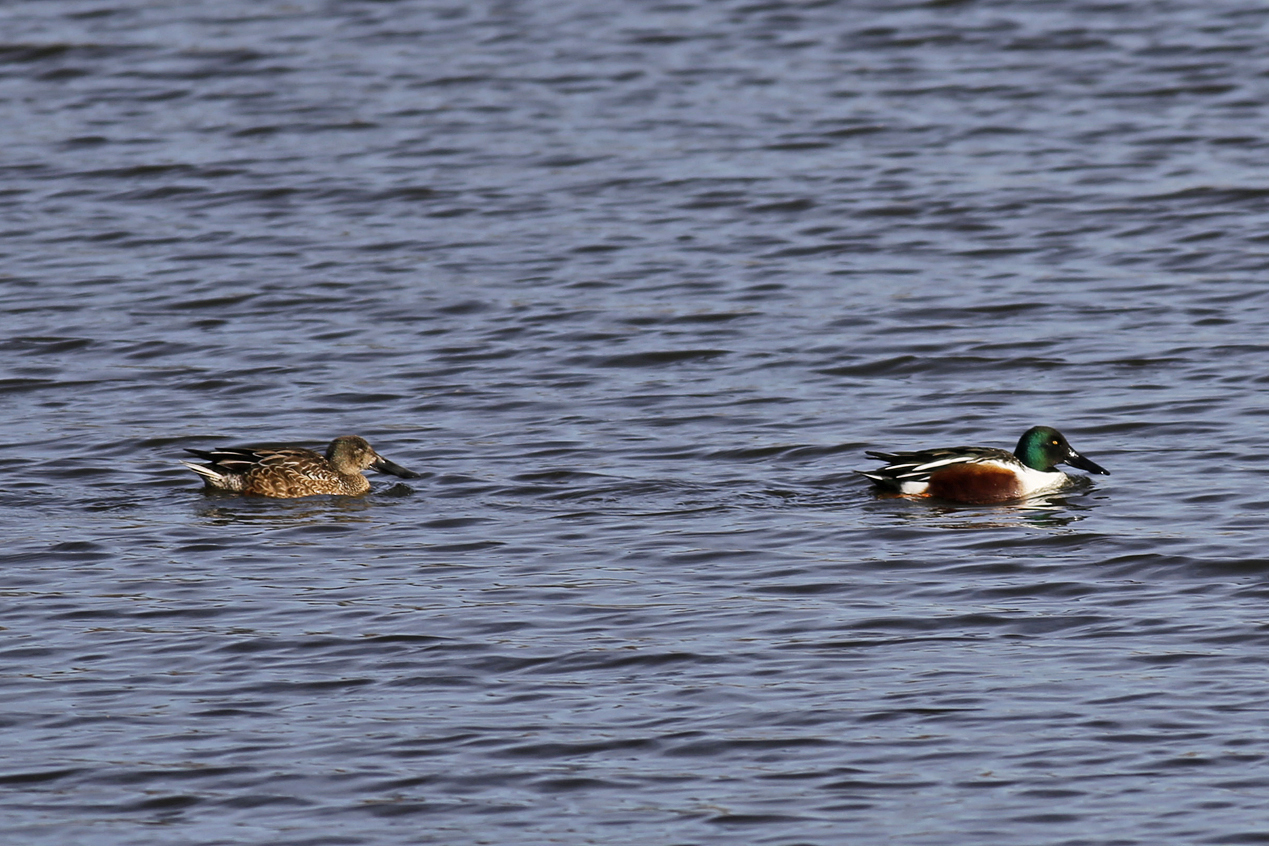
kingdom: Animalia
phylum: Chordata
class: Aves
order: Anseriformes
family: Anatidae
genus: Spatula
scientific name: Spatula clypeata
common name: Northern shoveler
